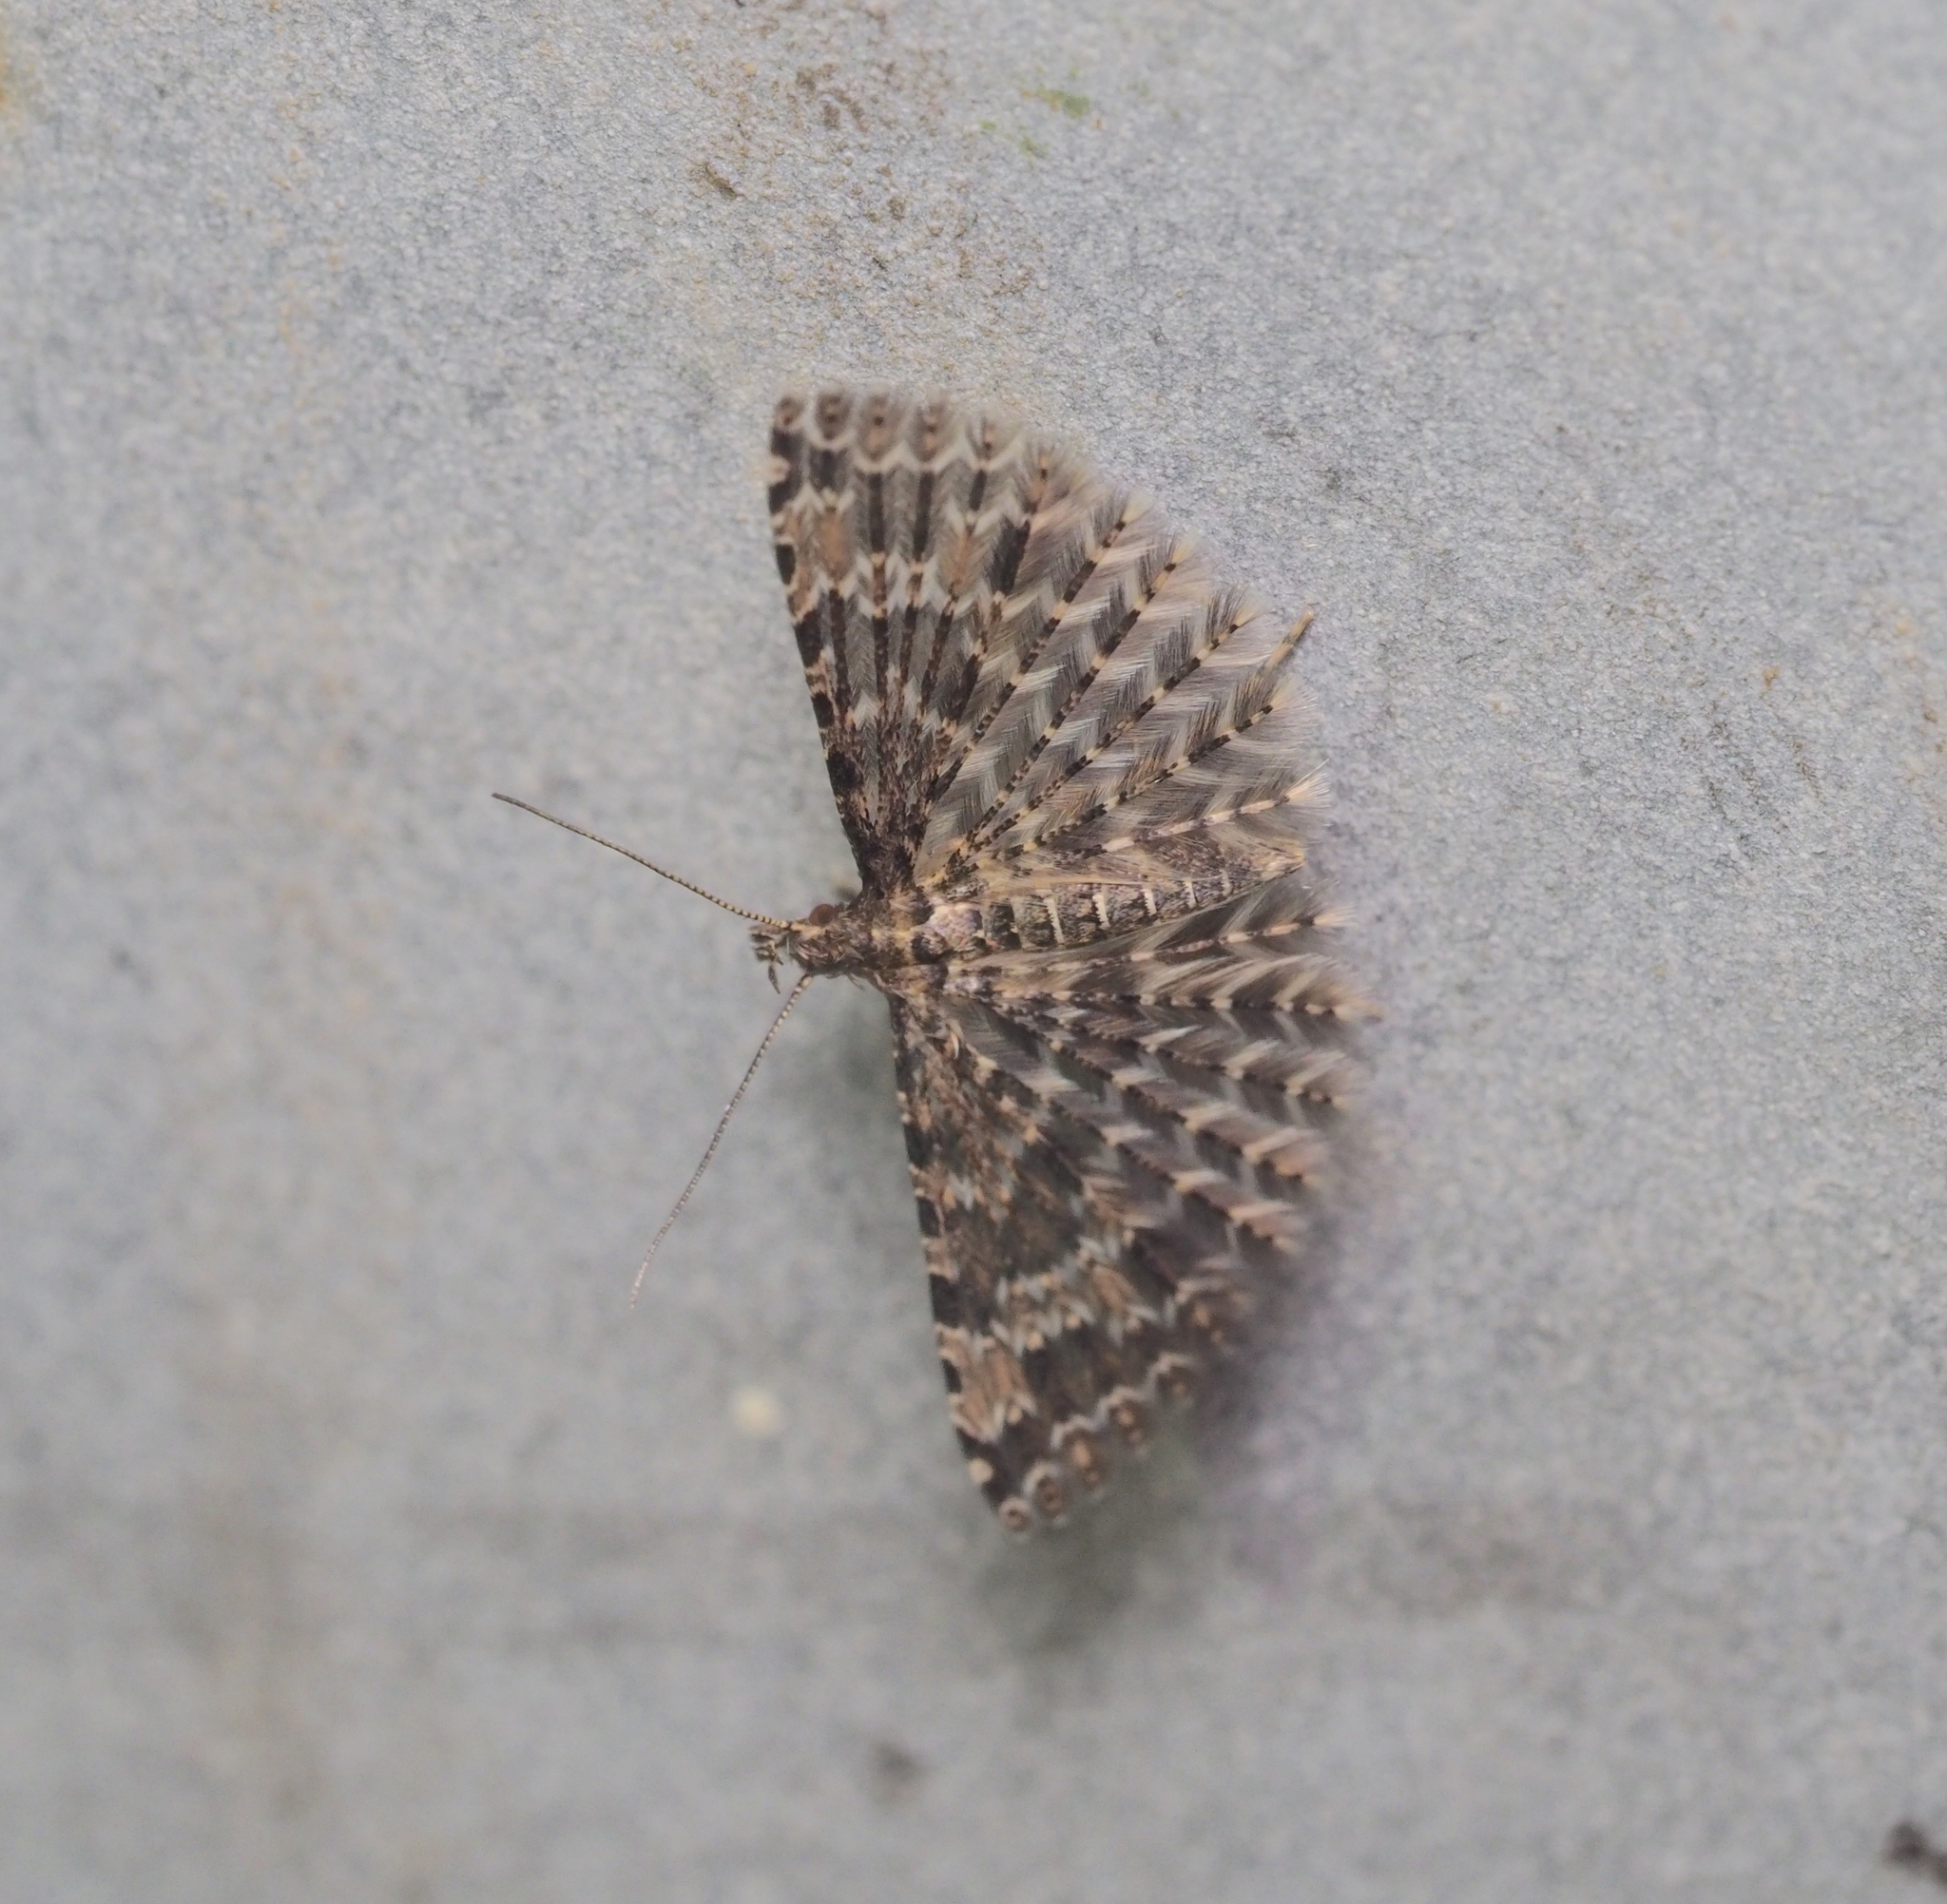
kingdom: Animalia
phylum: Arthropoda
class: Insecta
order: Lepidoptera
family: Alucitidae
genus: Alucita
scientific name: Alucita huebneri
